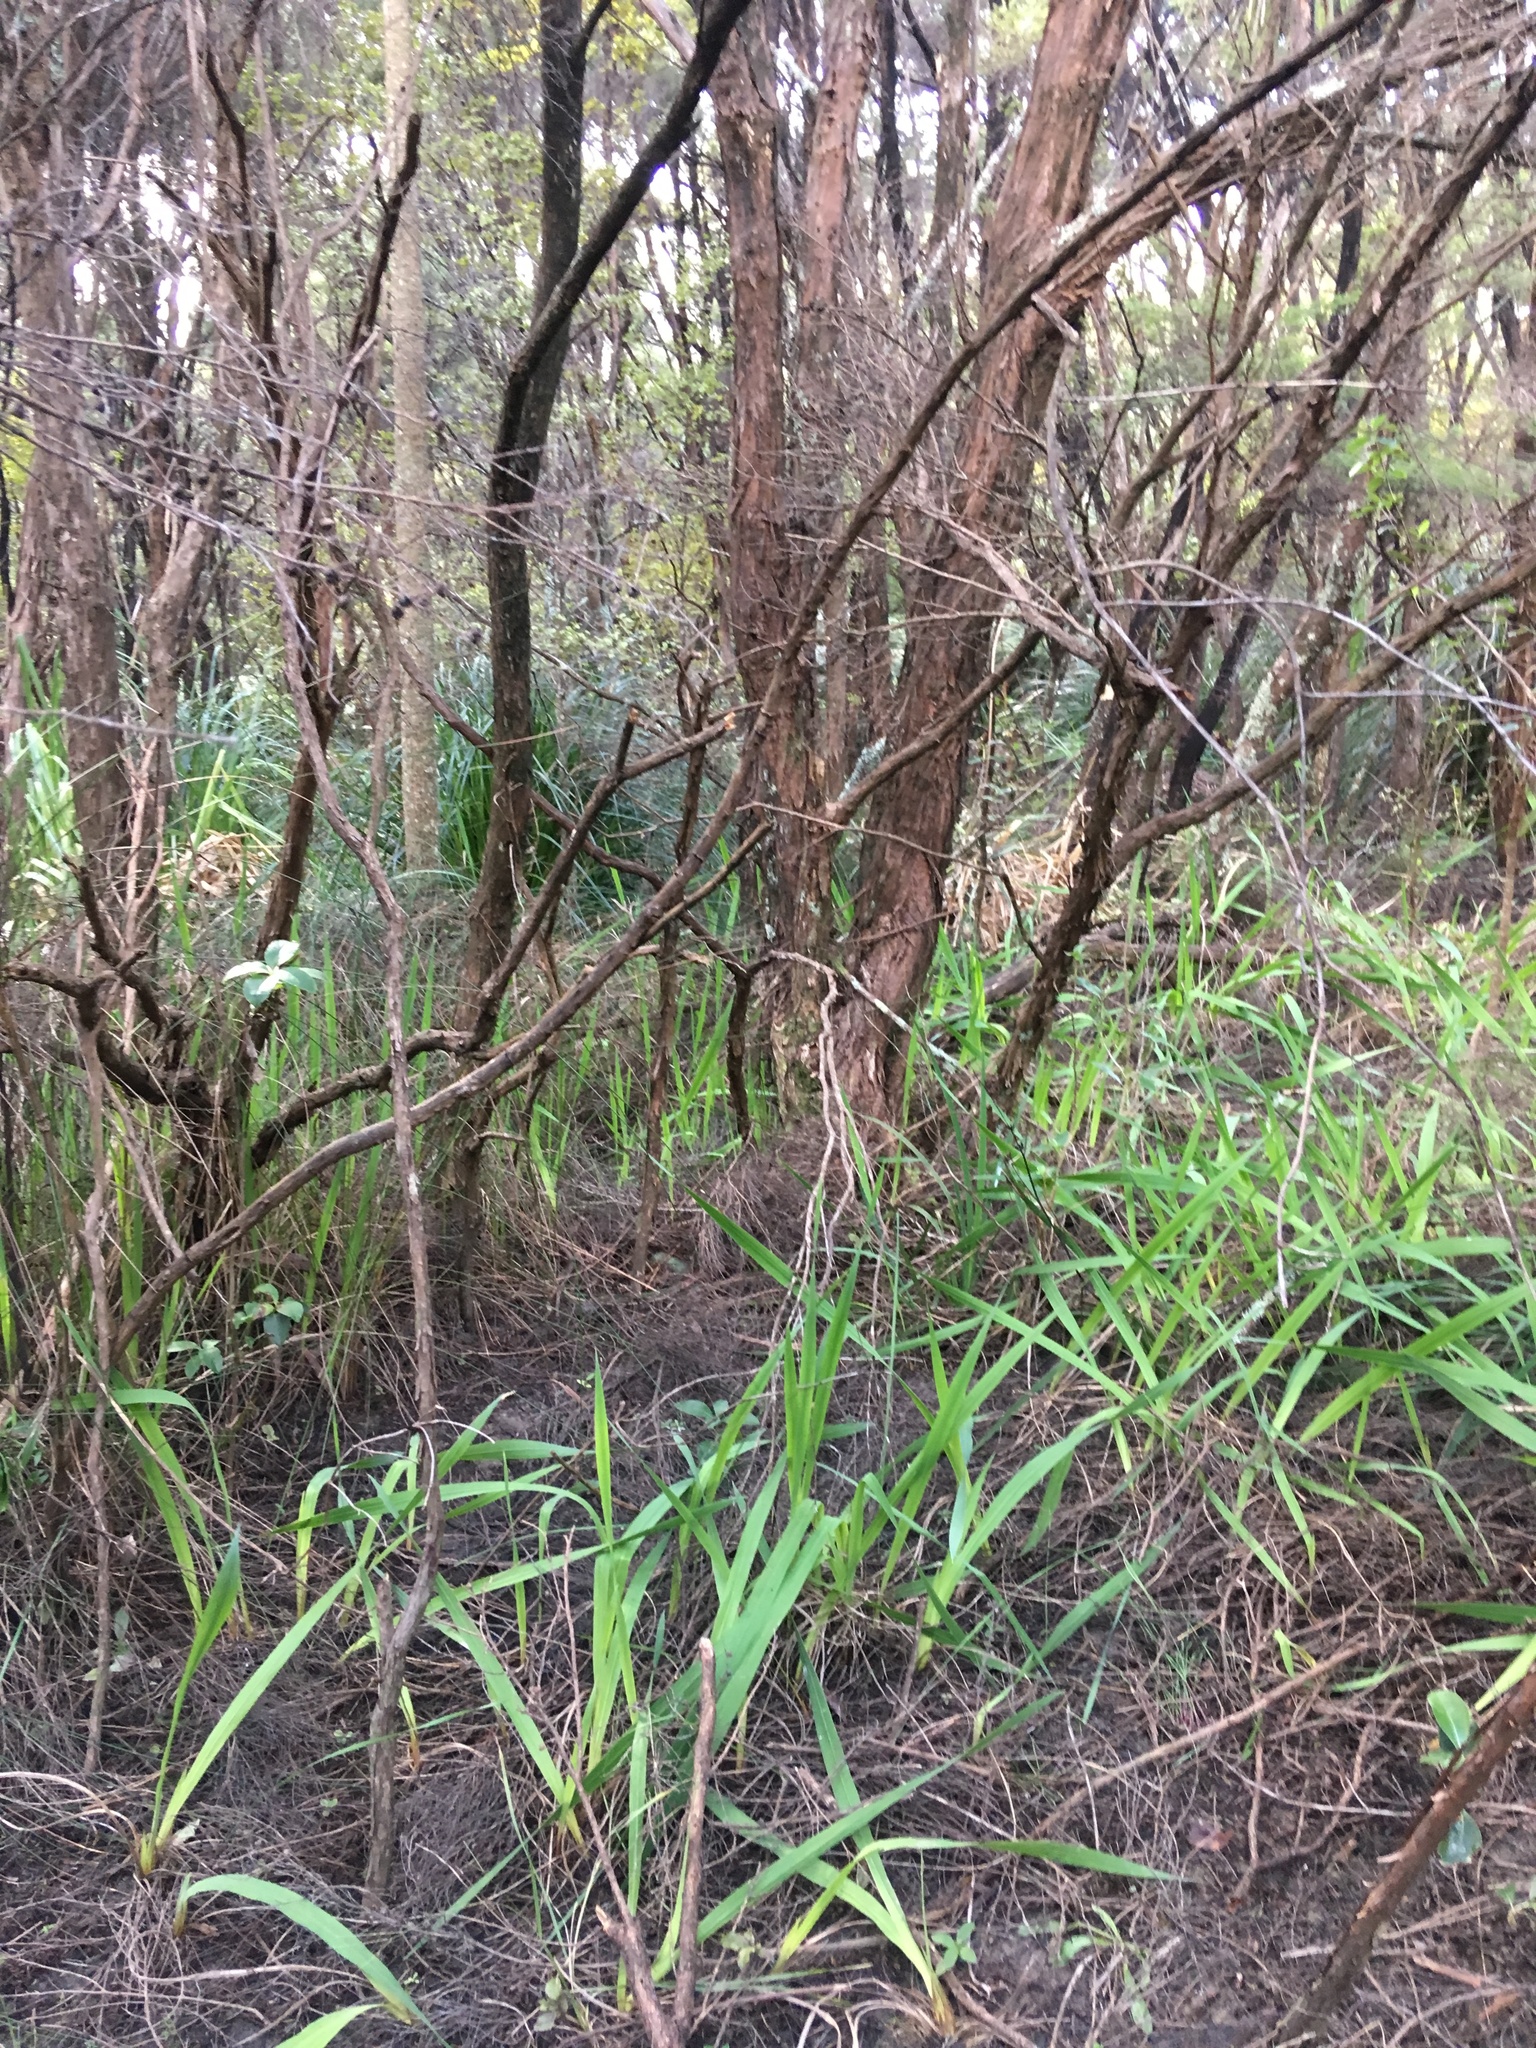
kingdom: Plantae
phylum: Tracheophyta
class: Magnoliopsida
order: Myrtales
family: Myrtaceae
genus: Leptospermum
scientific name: Leptospermum scoparium
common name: Broom tea-tree
